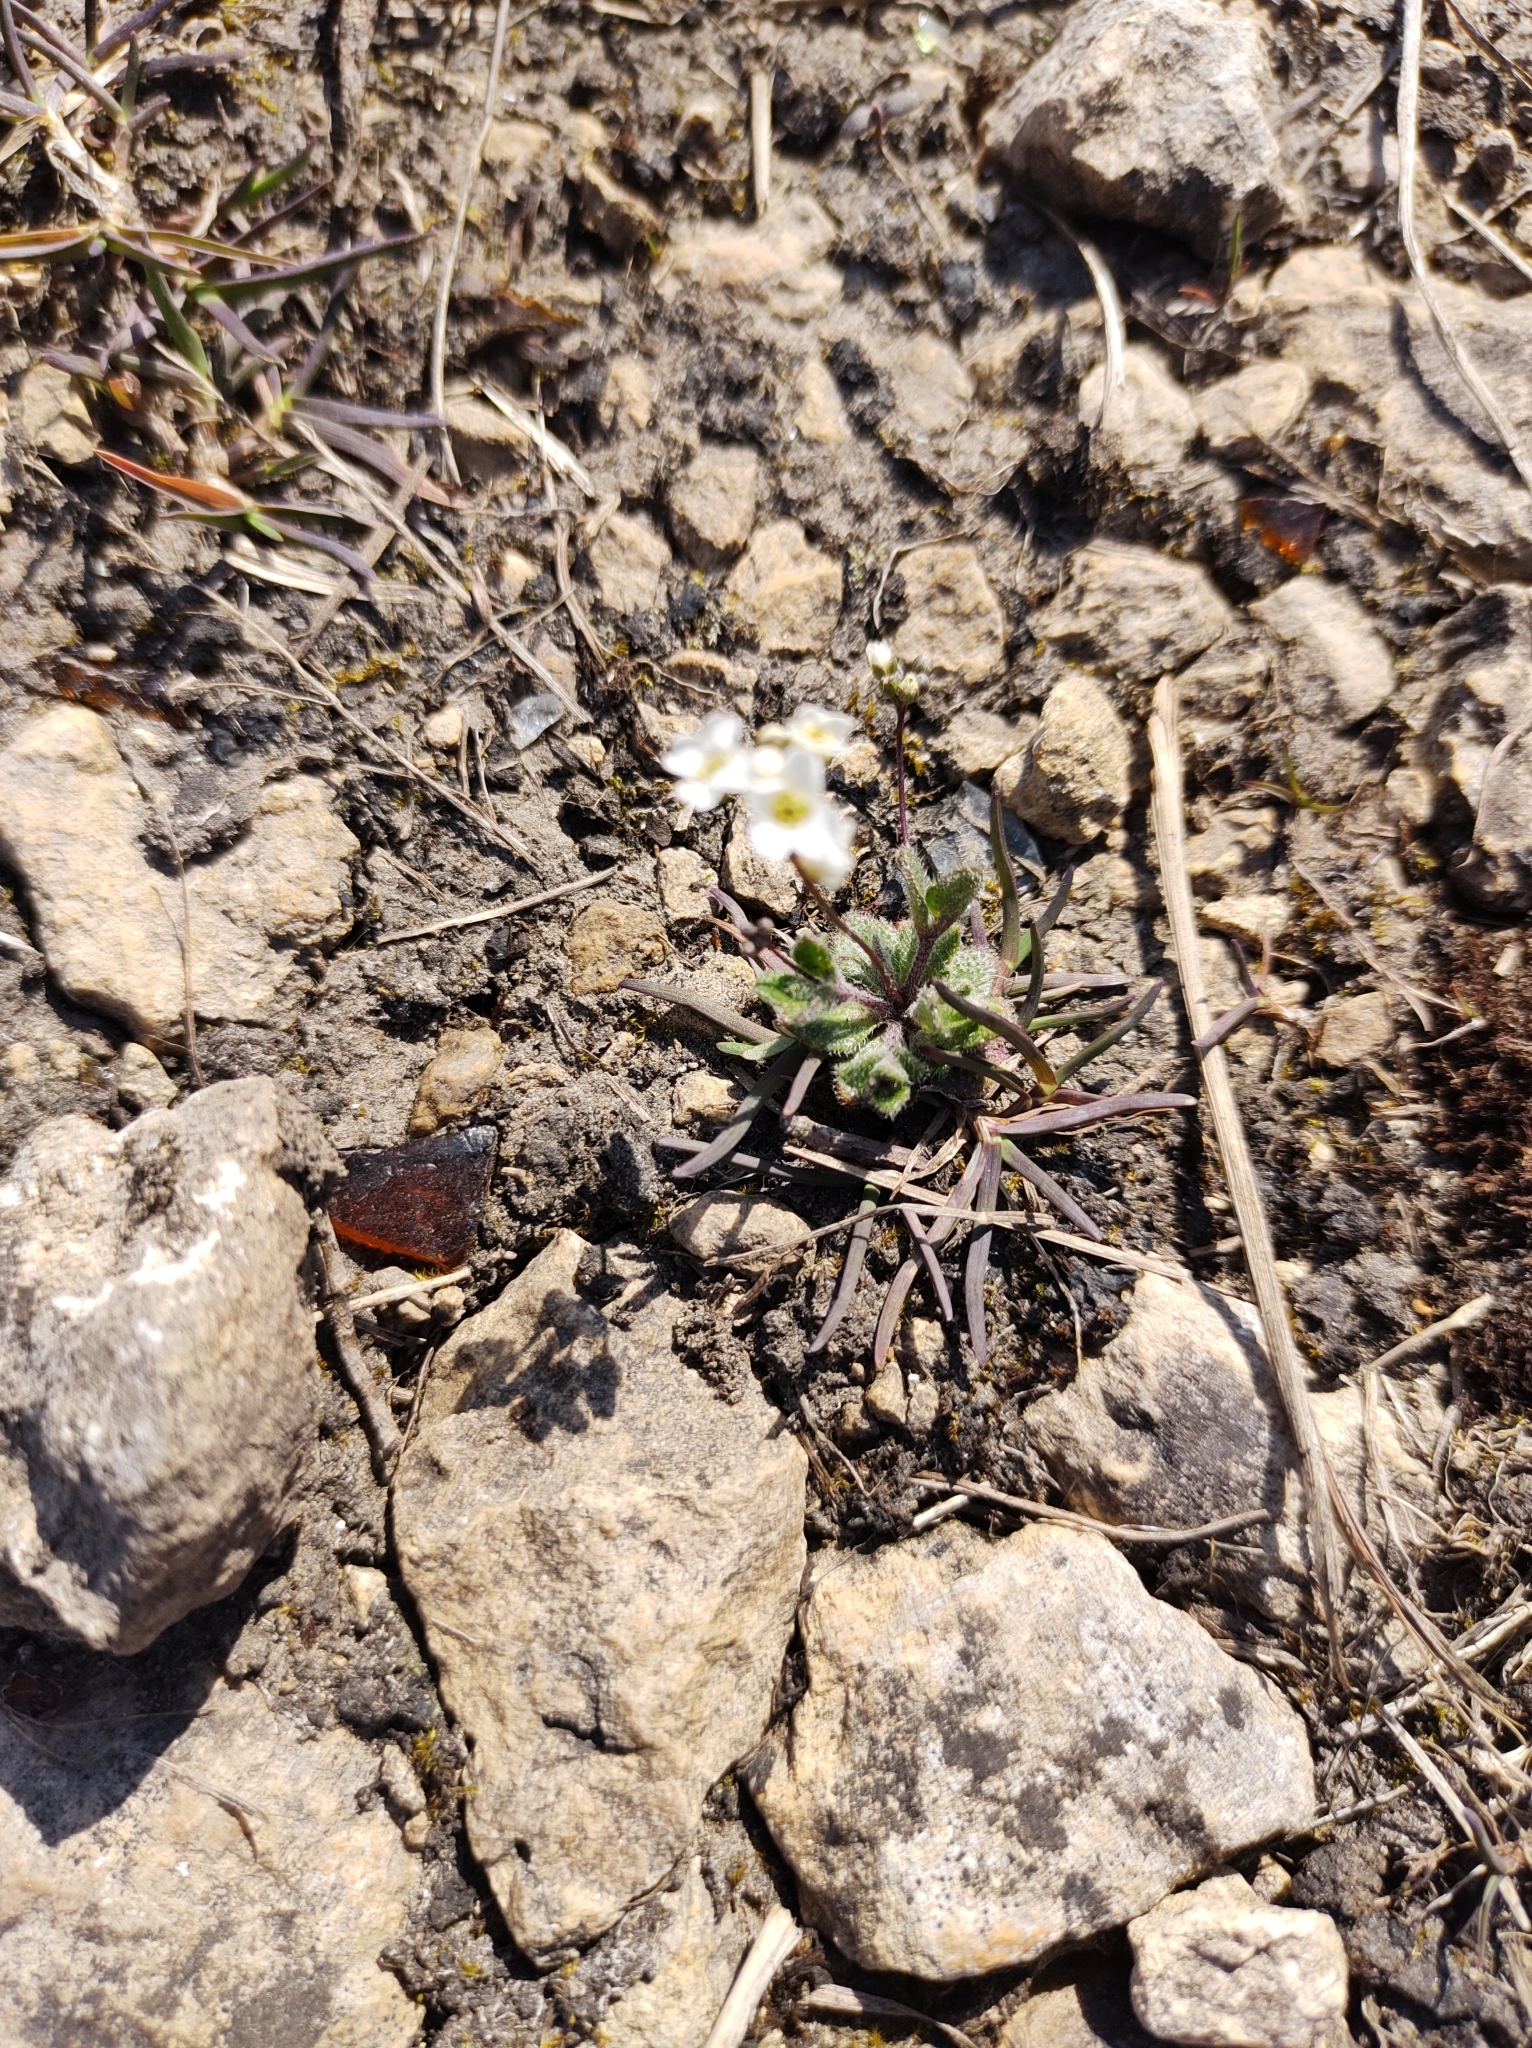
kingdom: Plantae
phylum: Tracheophyta
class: Magnoliopsida
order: Brassicales
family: Brassicaceae
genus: Tomostima
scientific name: Tomostima reptans
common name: Carolina draba
